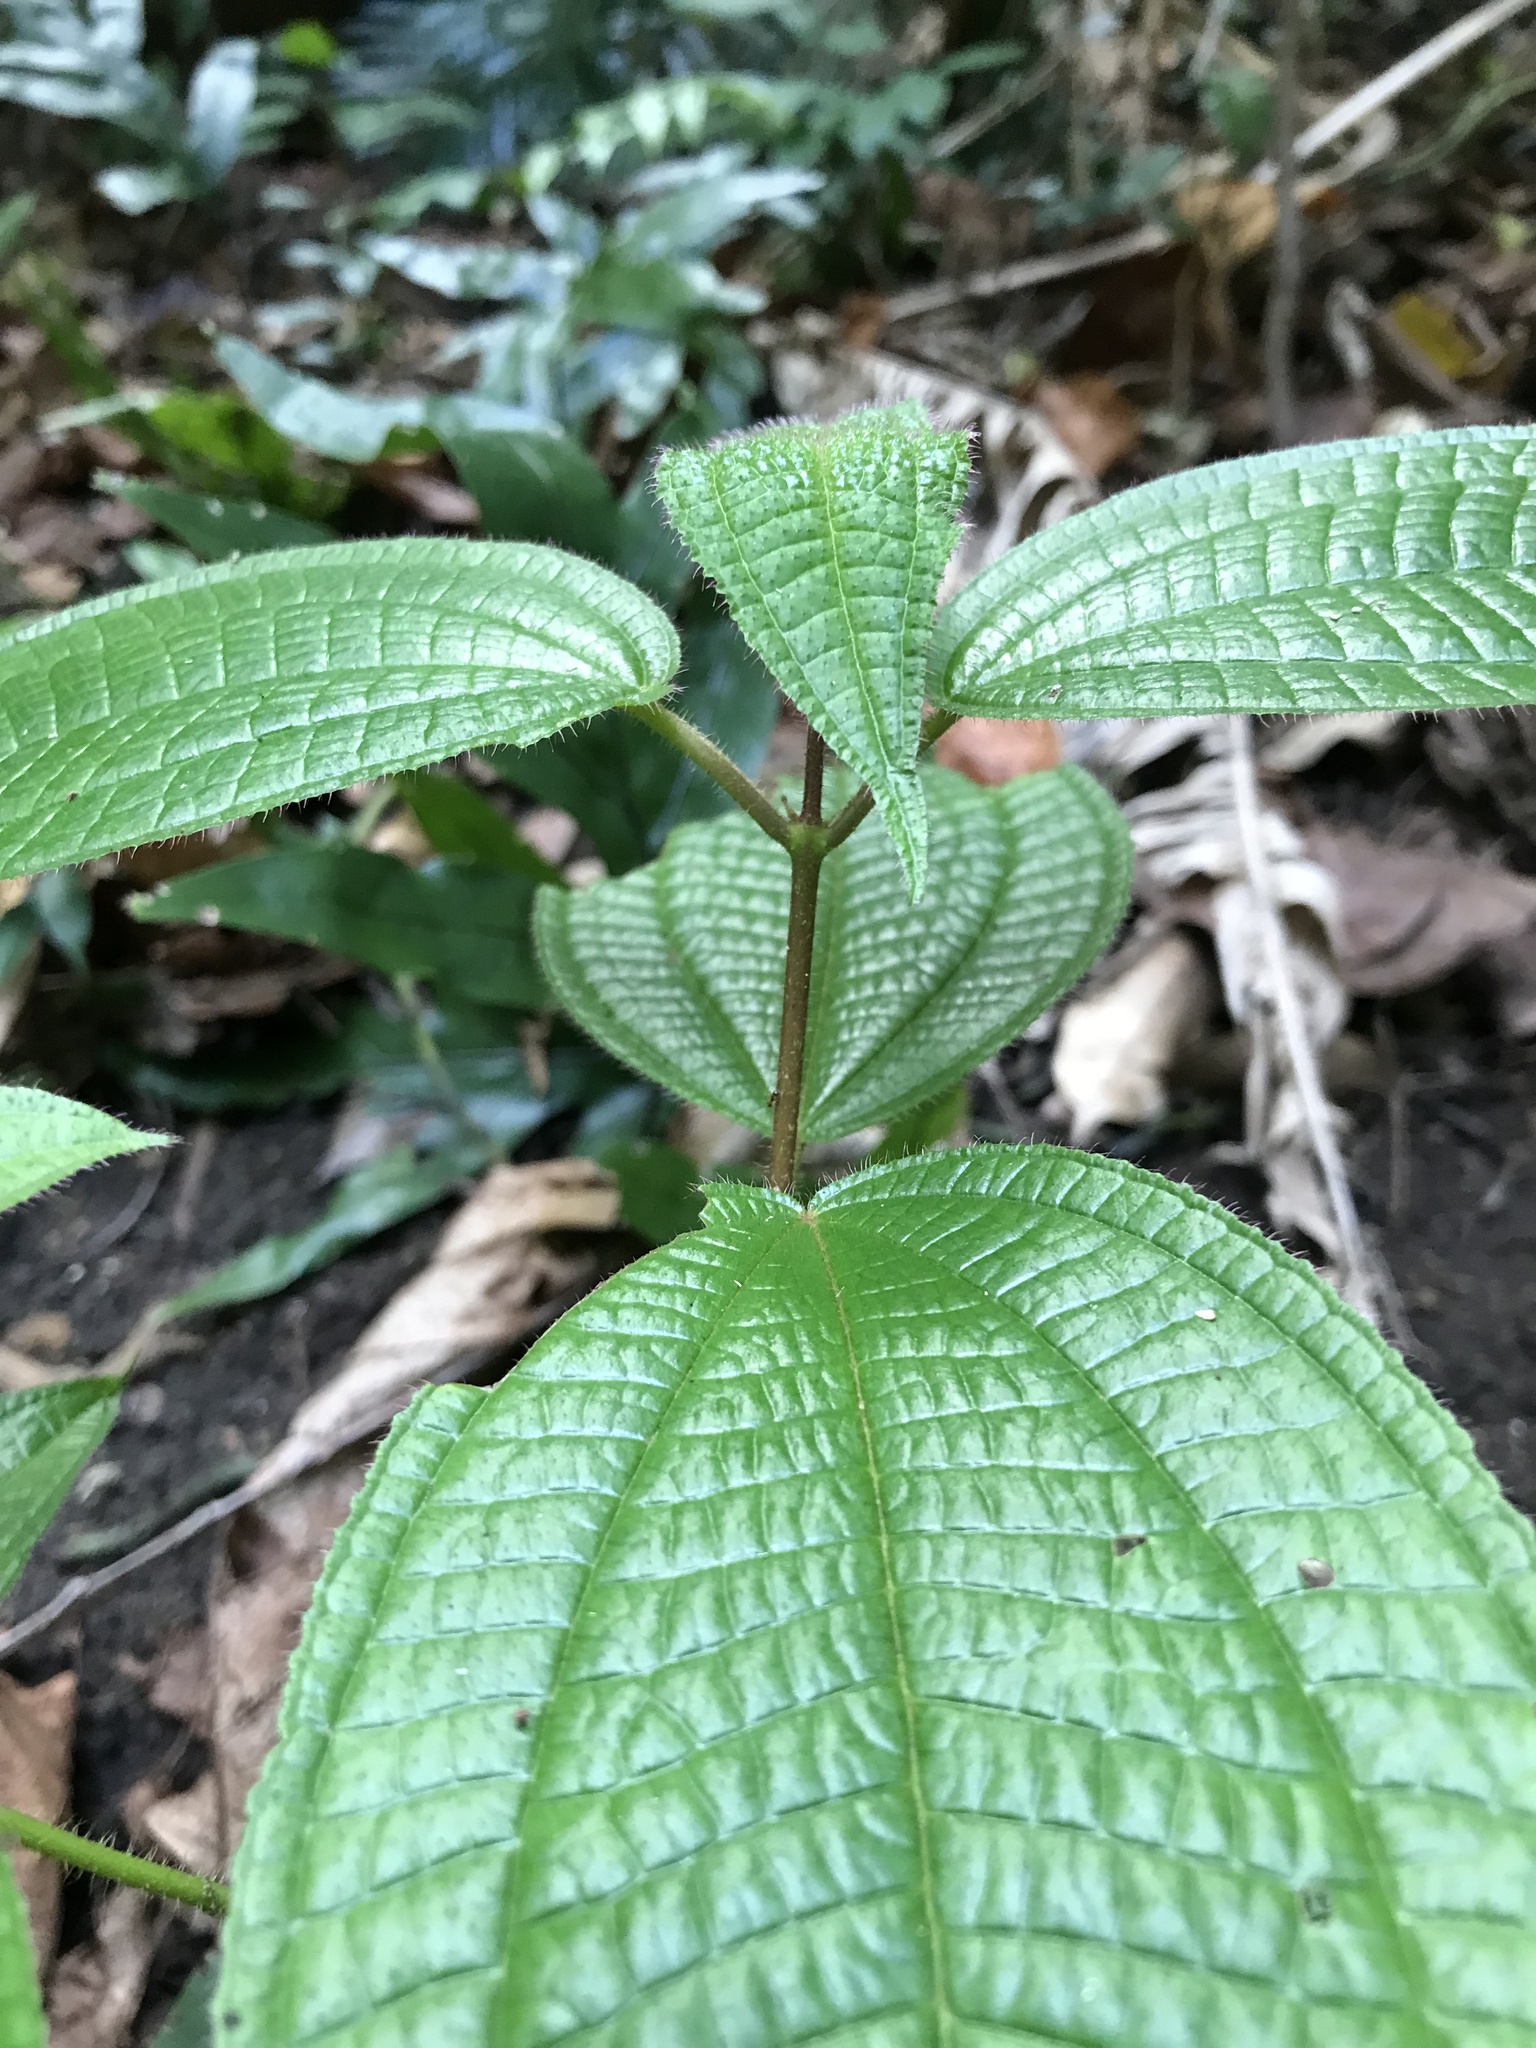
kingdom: Plantae
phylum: Tracheophyta
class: Magnoliopsida
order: Myrtales
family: Melastomataceae
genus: Miconia
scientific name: Miconia crenata
